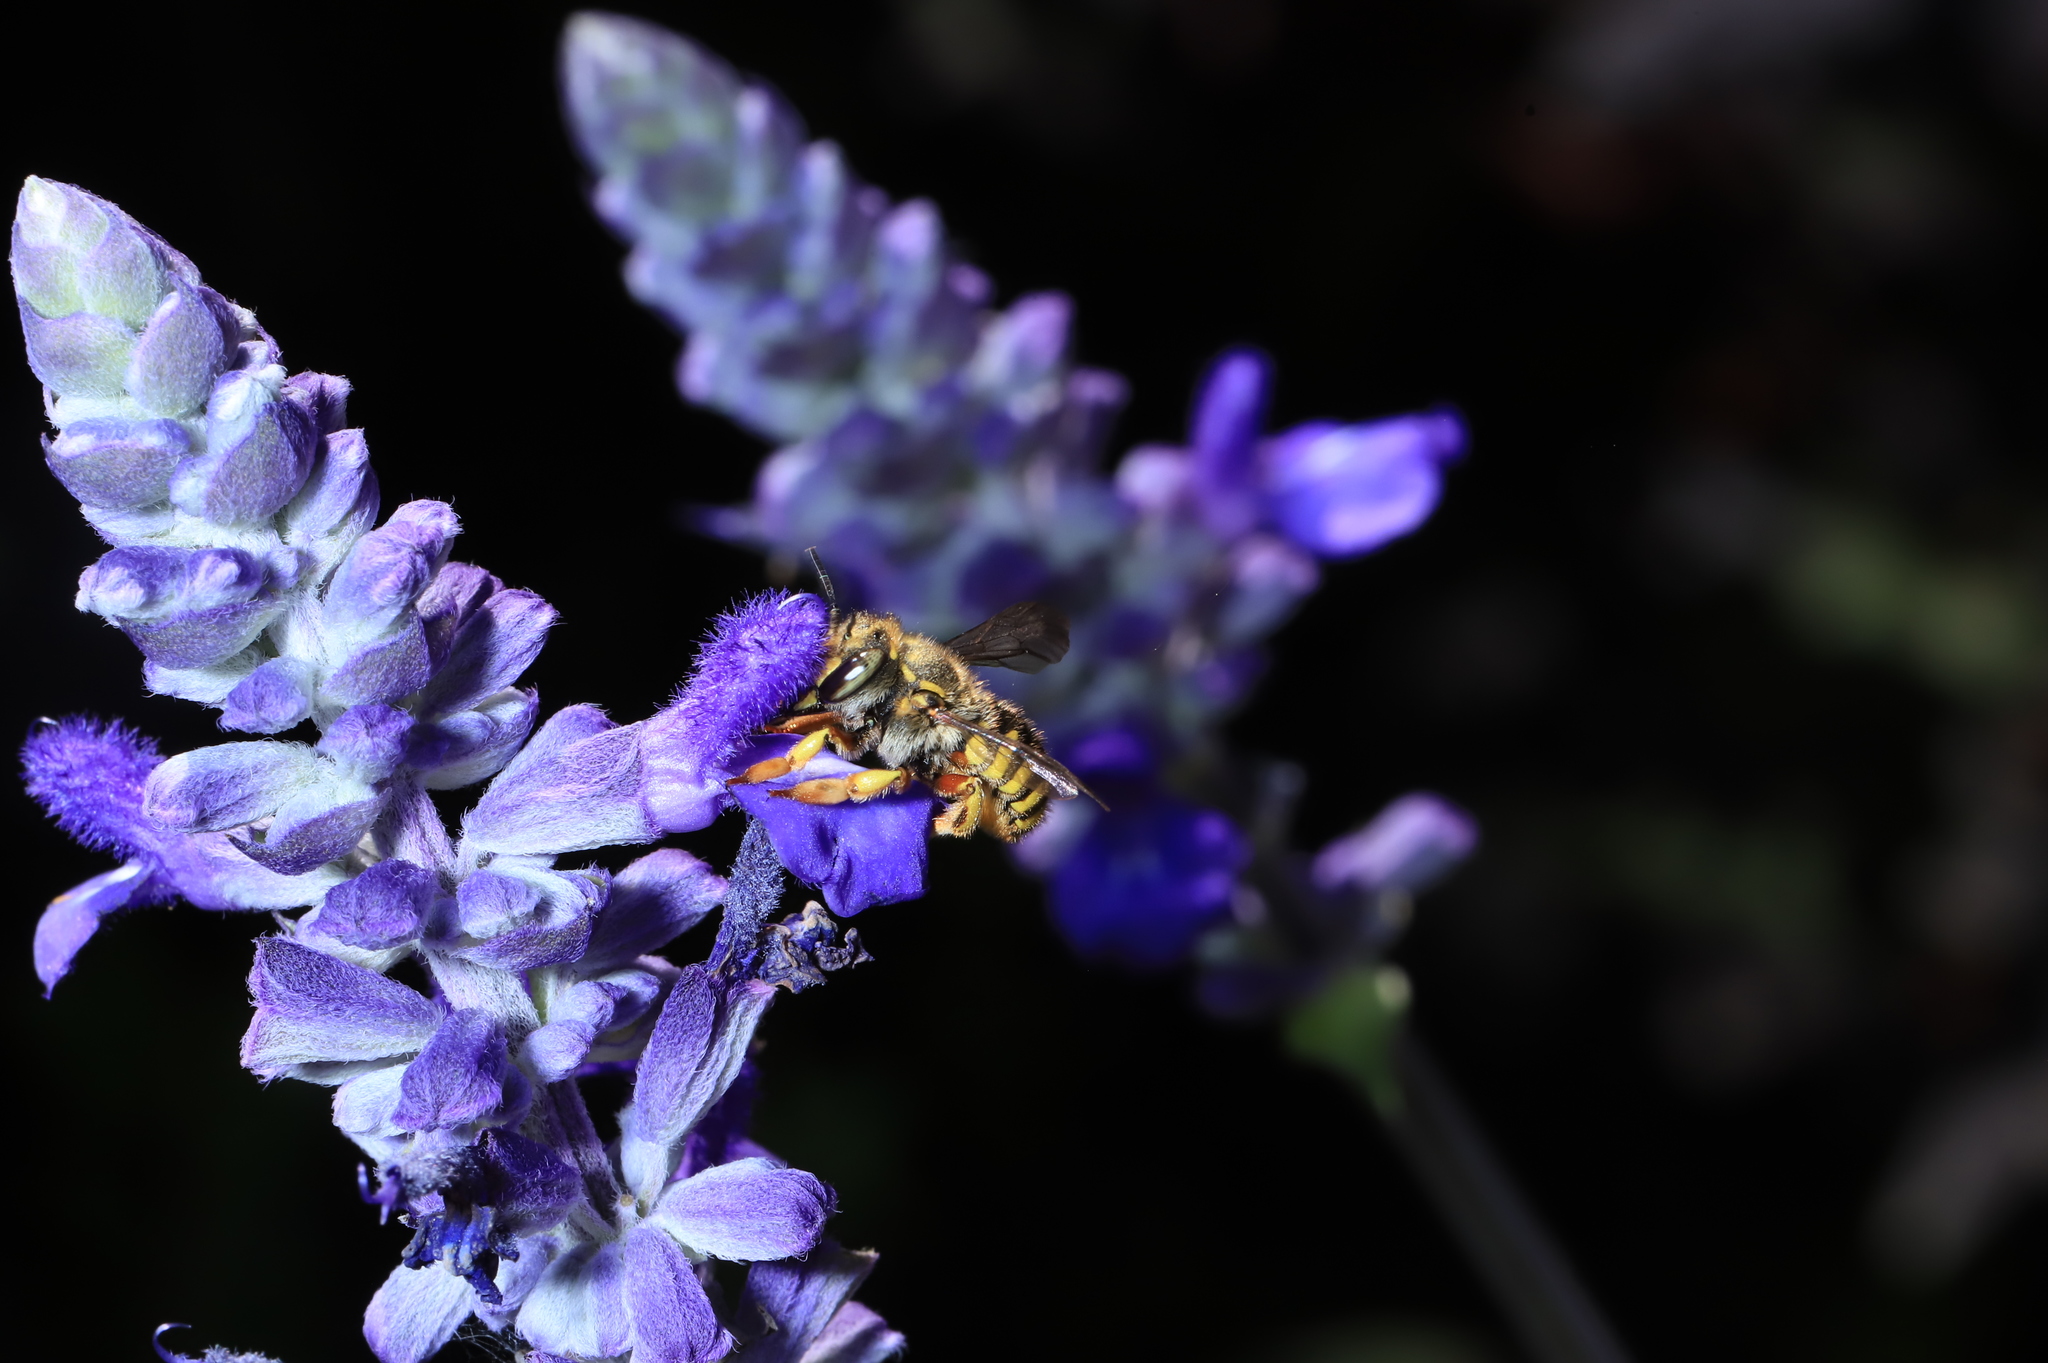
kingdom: Animalia
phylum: Arthropoda
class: Insecta
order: Hymenoptera
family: Megachilidae
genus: Anthidium
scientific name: Anthidium manicatum
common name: Wool carder bee
